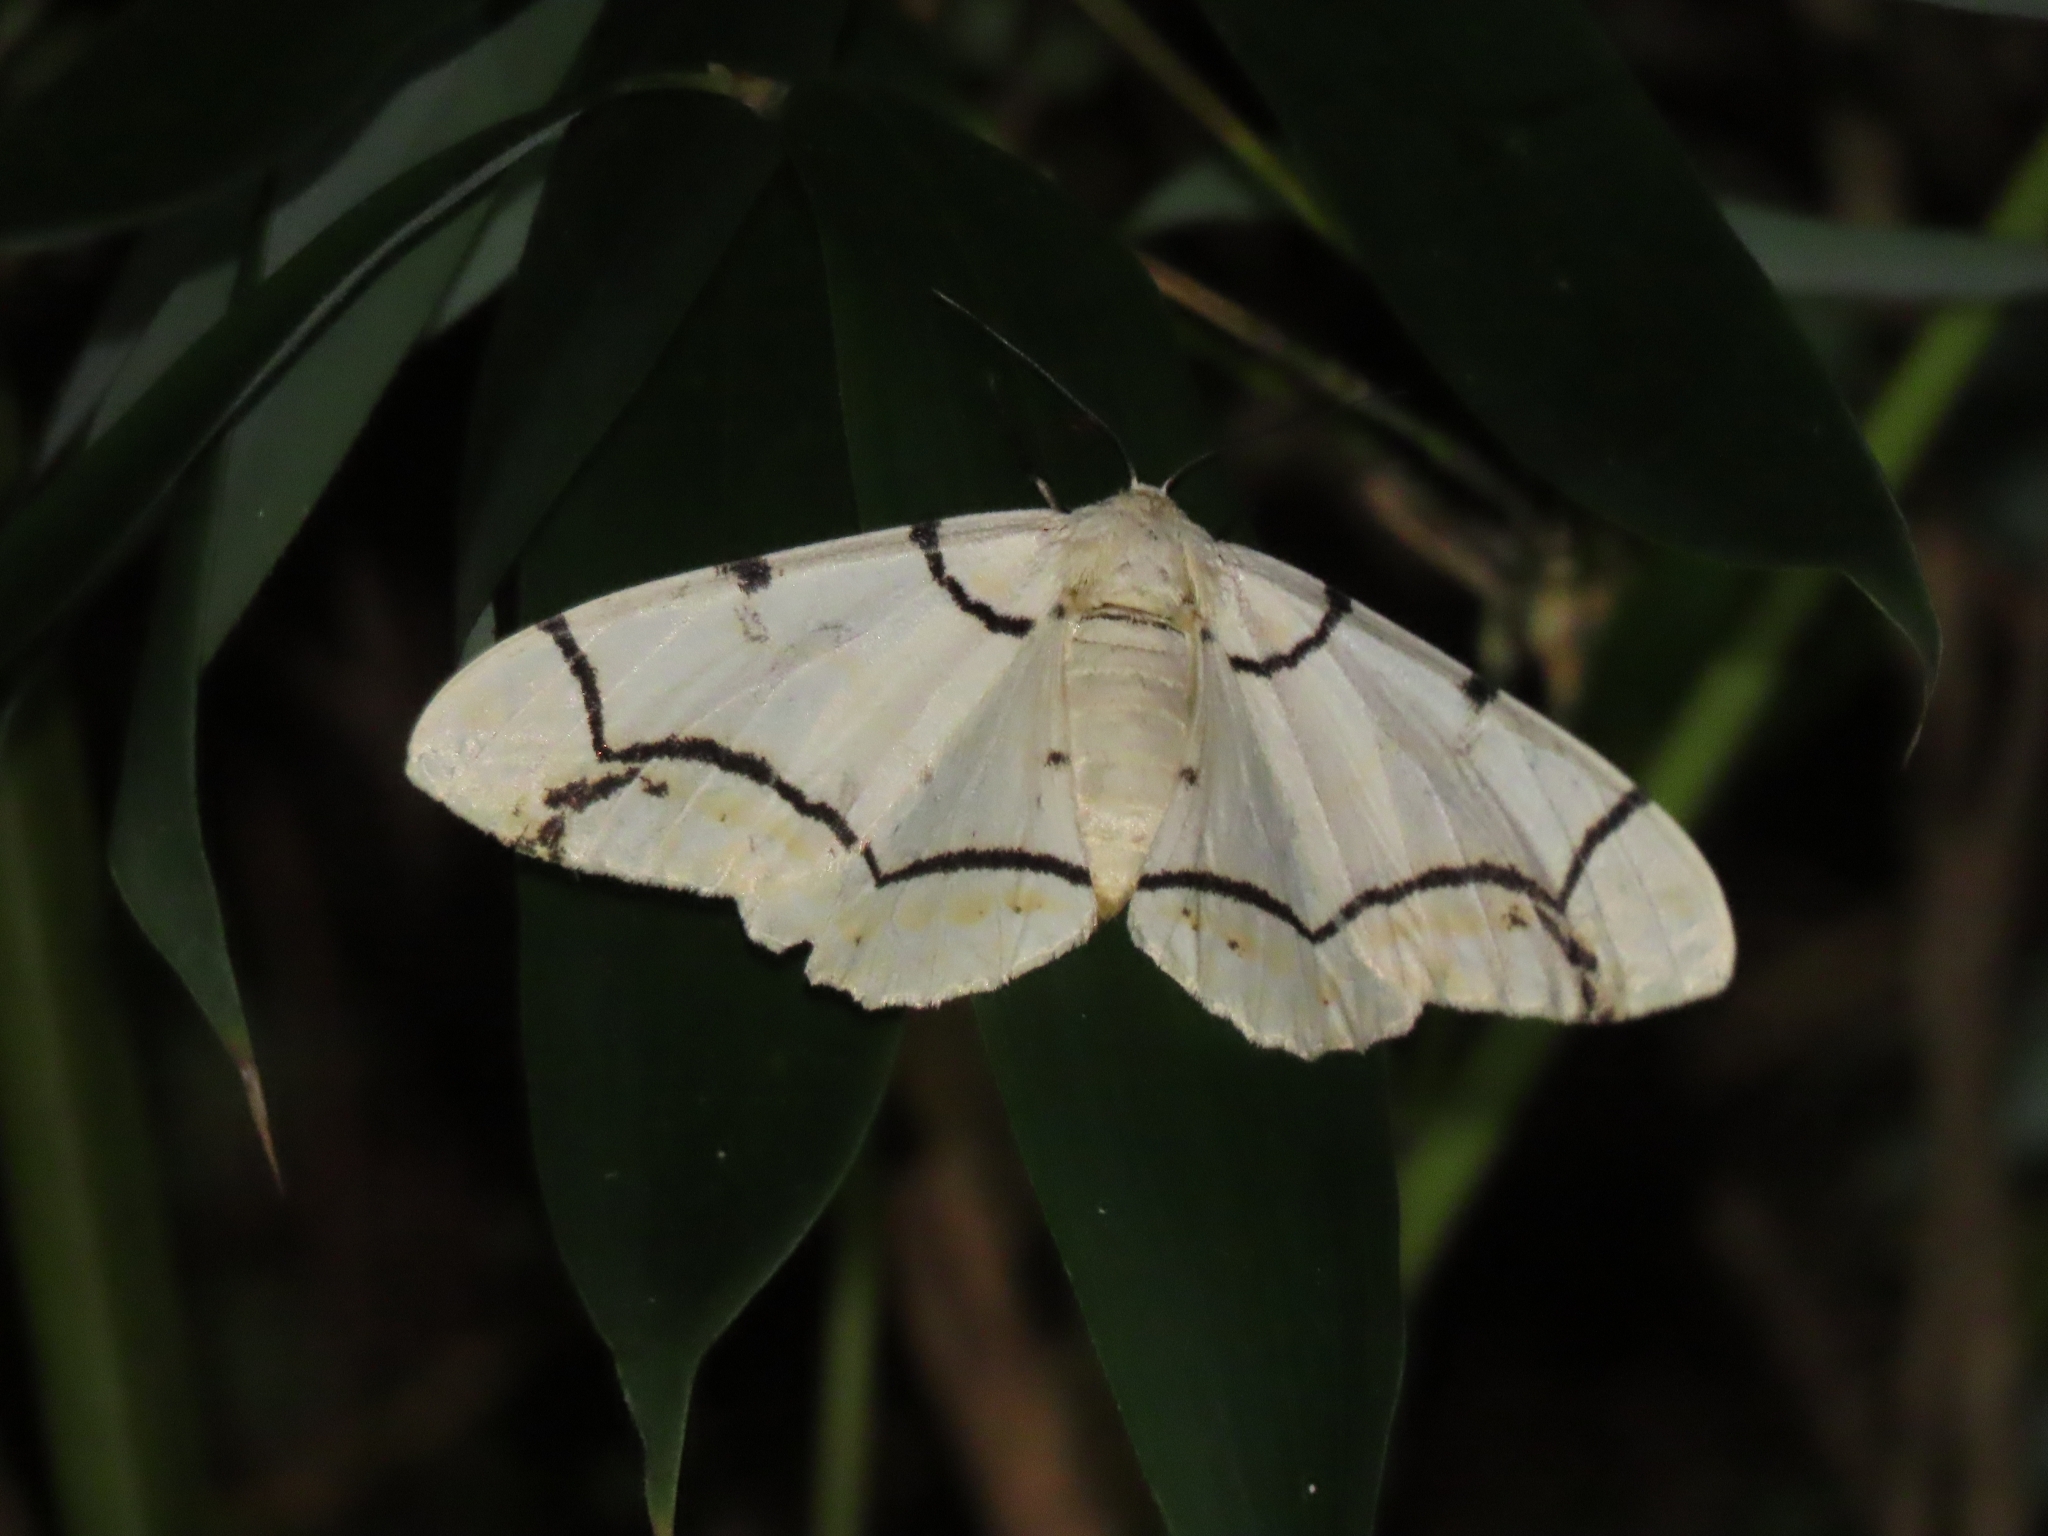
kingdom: Animalia
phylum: Arthropoda
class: Insecta
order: Lepidoptera
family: Geometridae
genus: Biston
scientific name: Biston perclara
